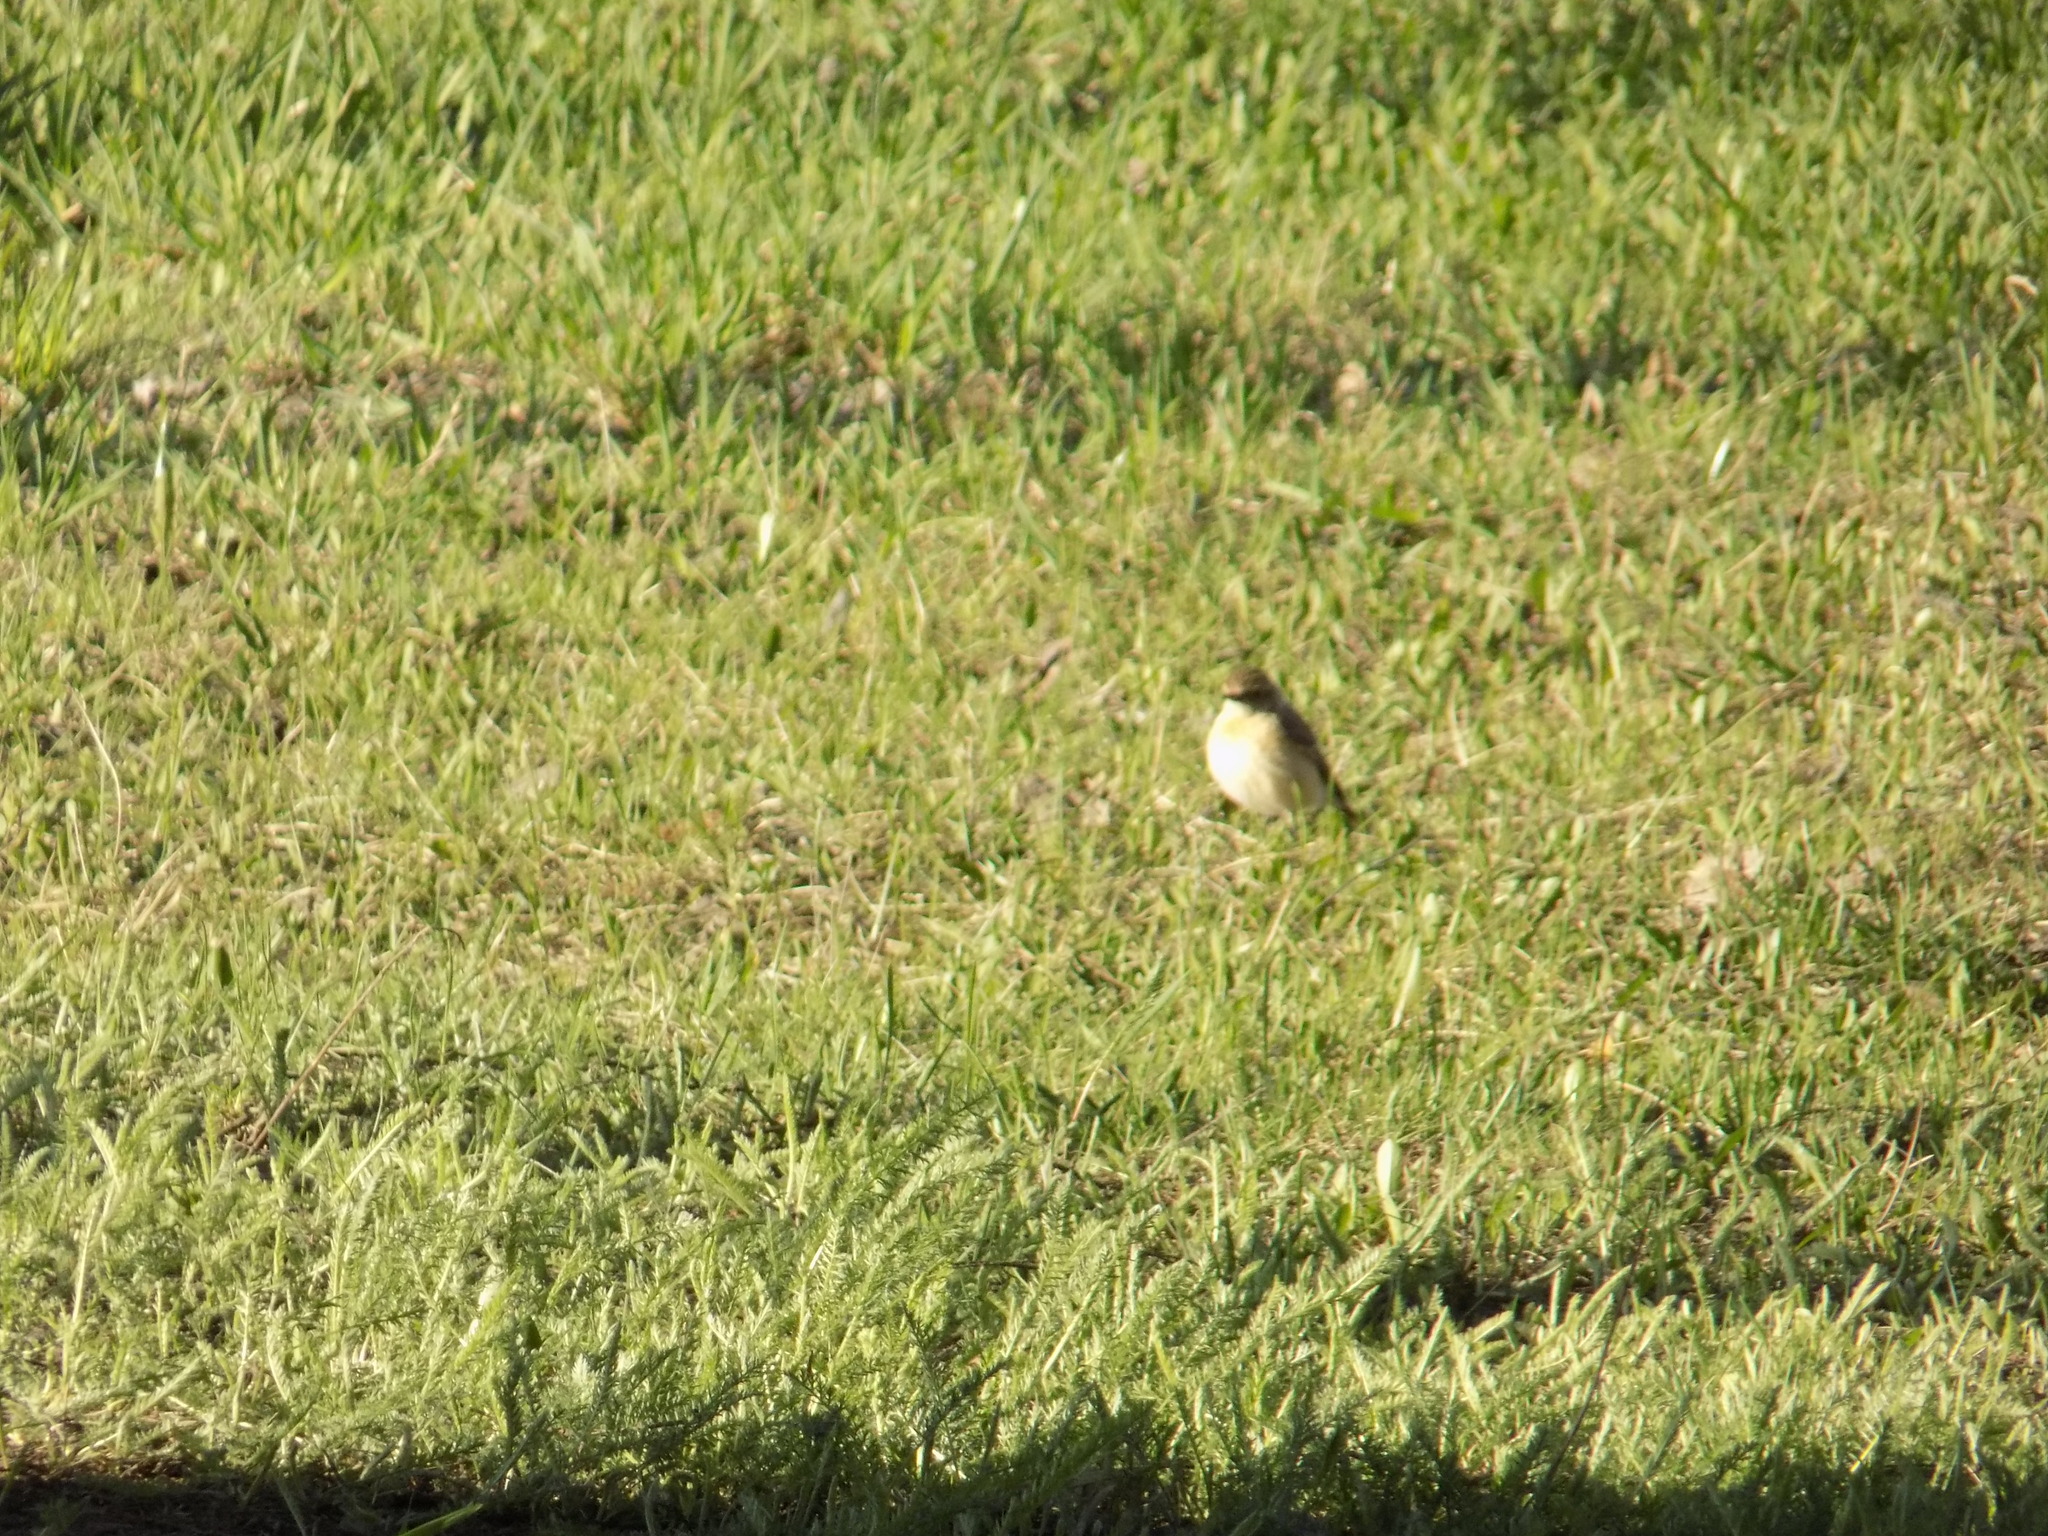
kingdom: Animalia
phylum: Chordata
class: Aves
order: Passeriformes
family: Muscicapidae
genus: Saxicola
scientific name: Saxicola maurus
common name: Siberian stonechat
